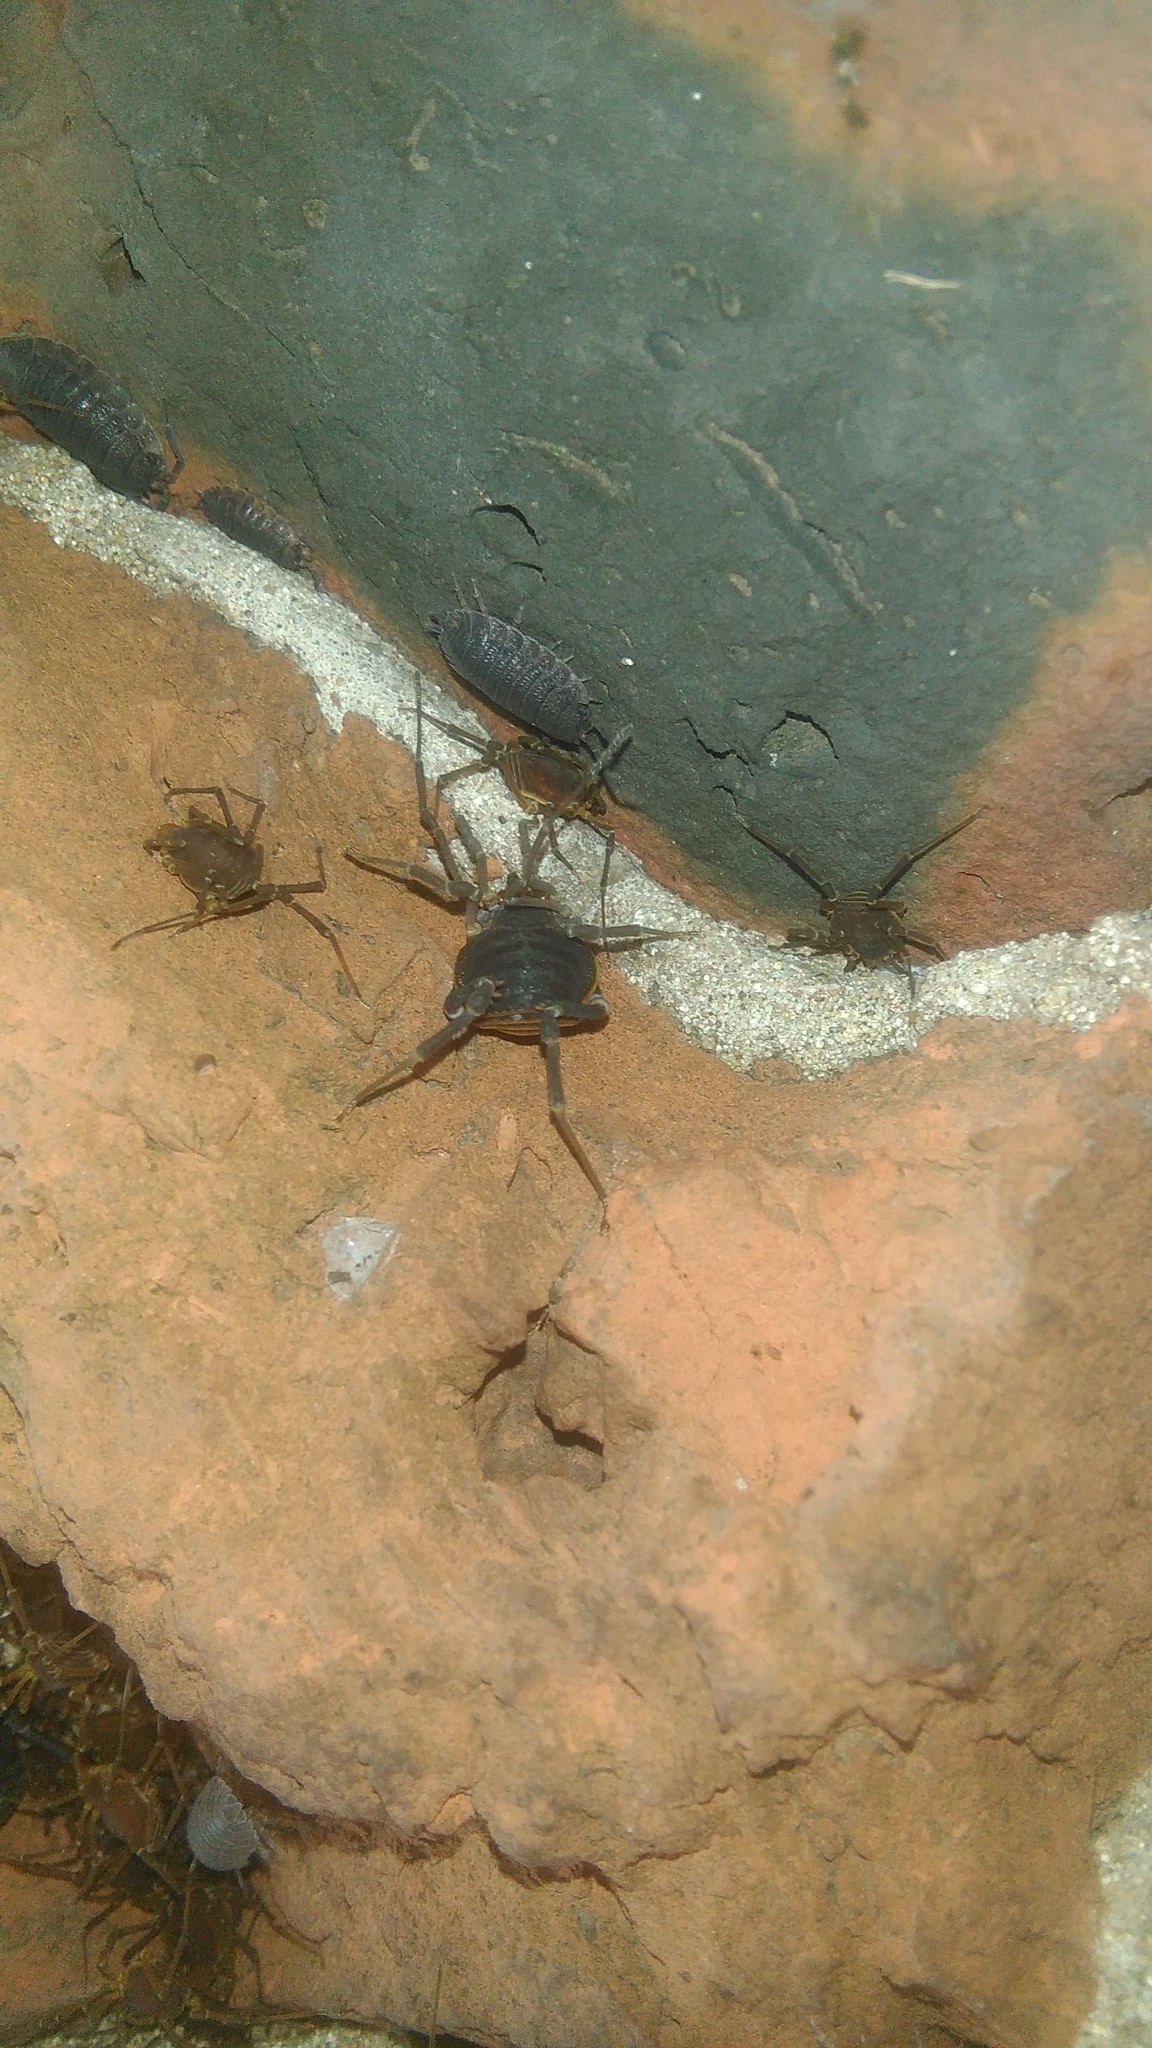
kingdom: Animalia
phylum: Arthropoda
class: Arachnida
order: Opiliones
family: Gonyleptidae
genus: Pachyloides
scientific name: Pachyloides thorellii
